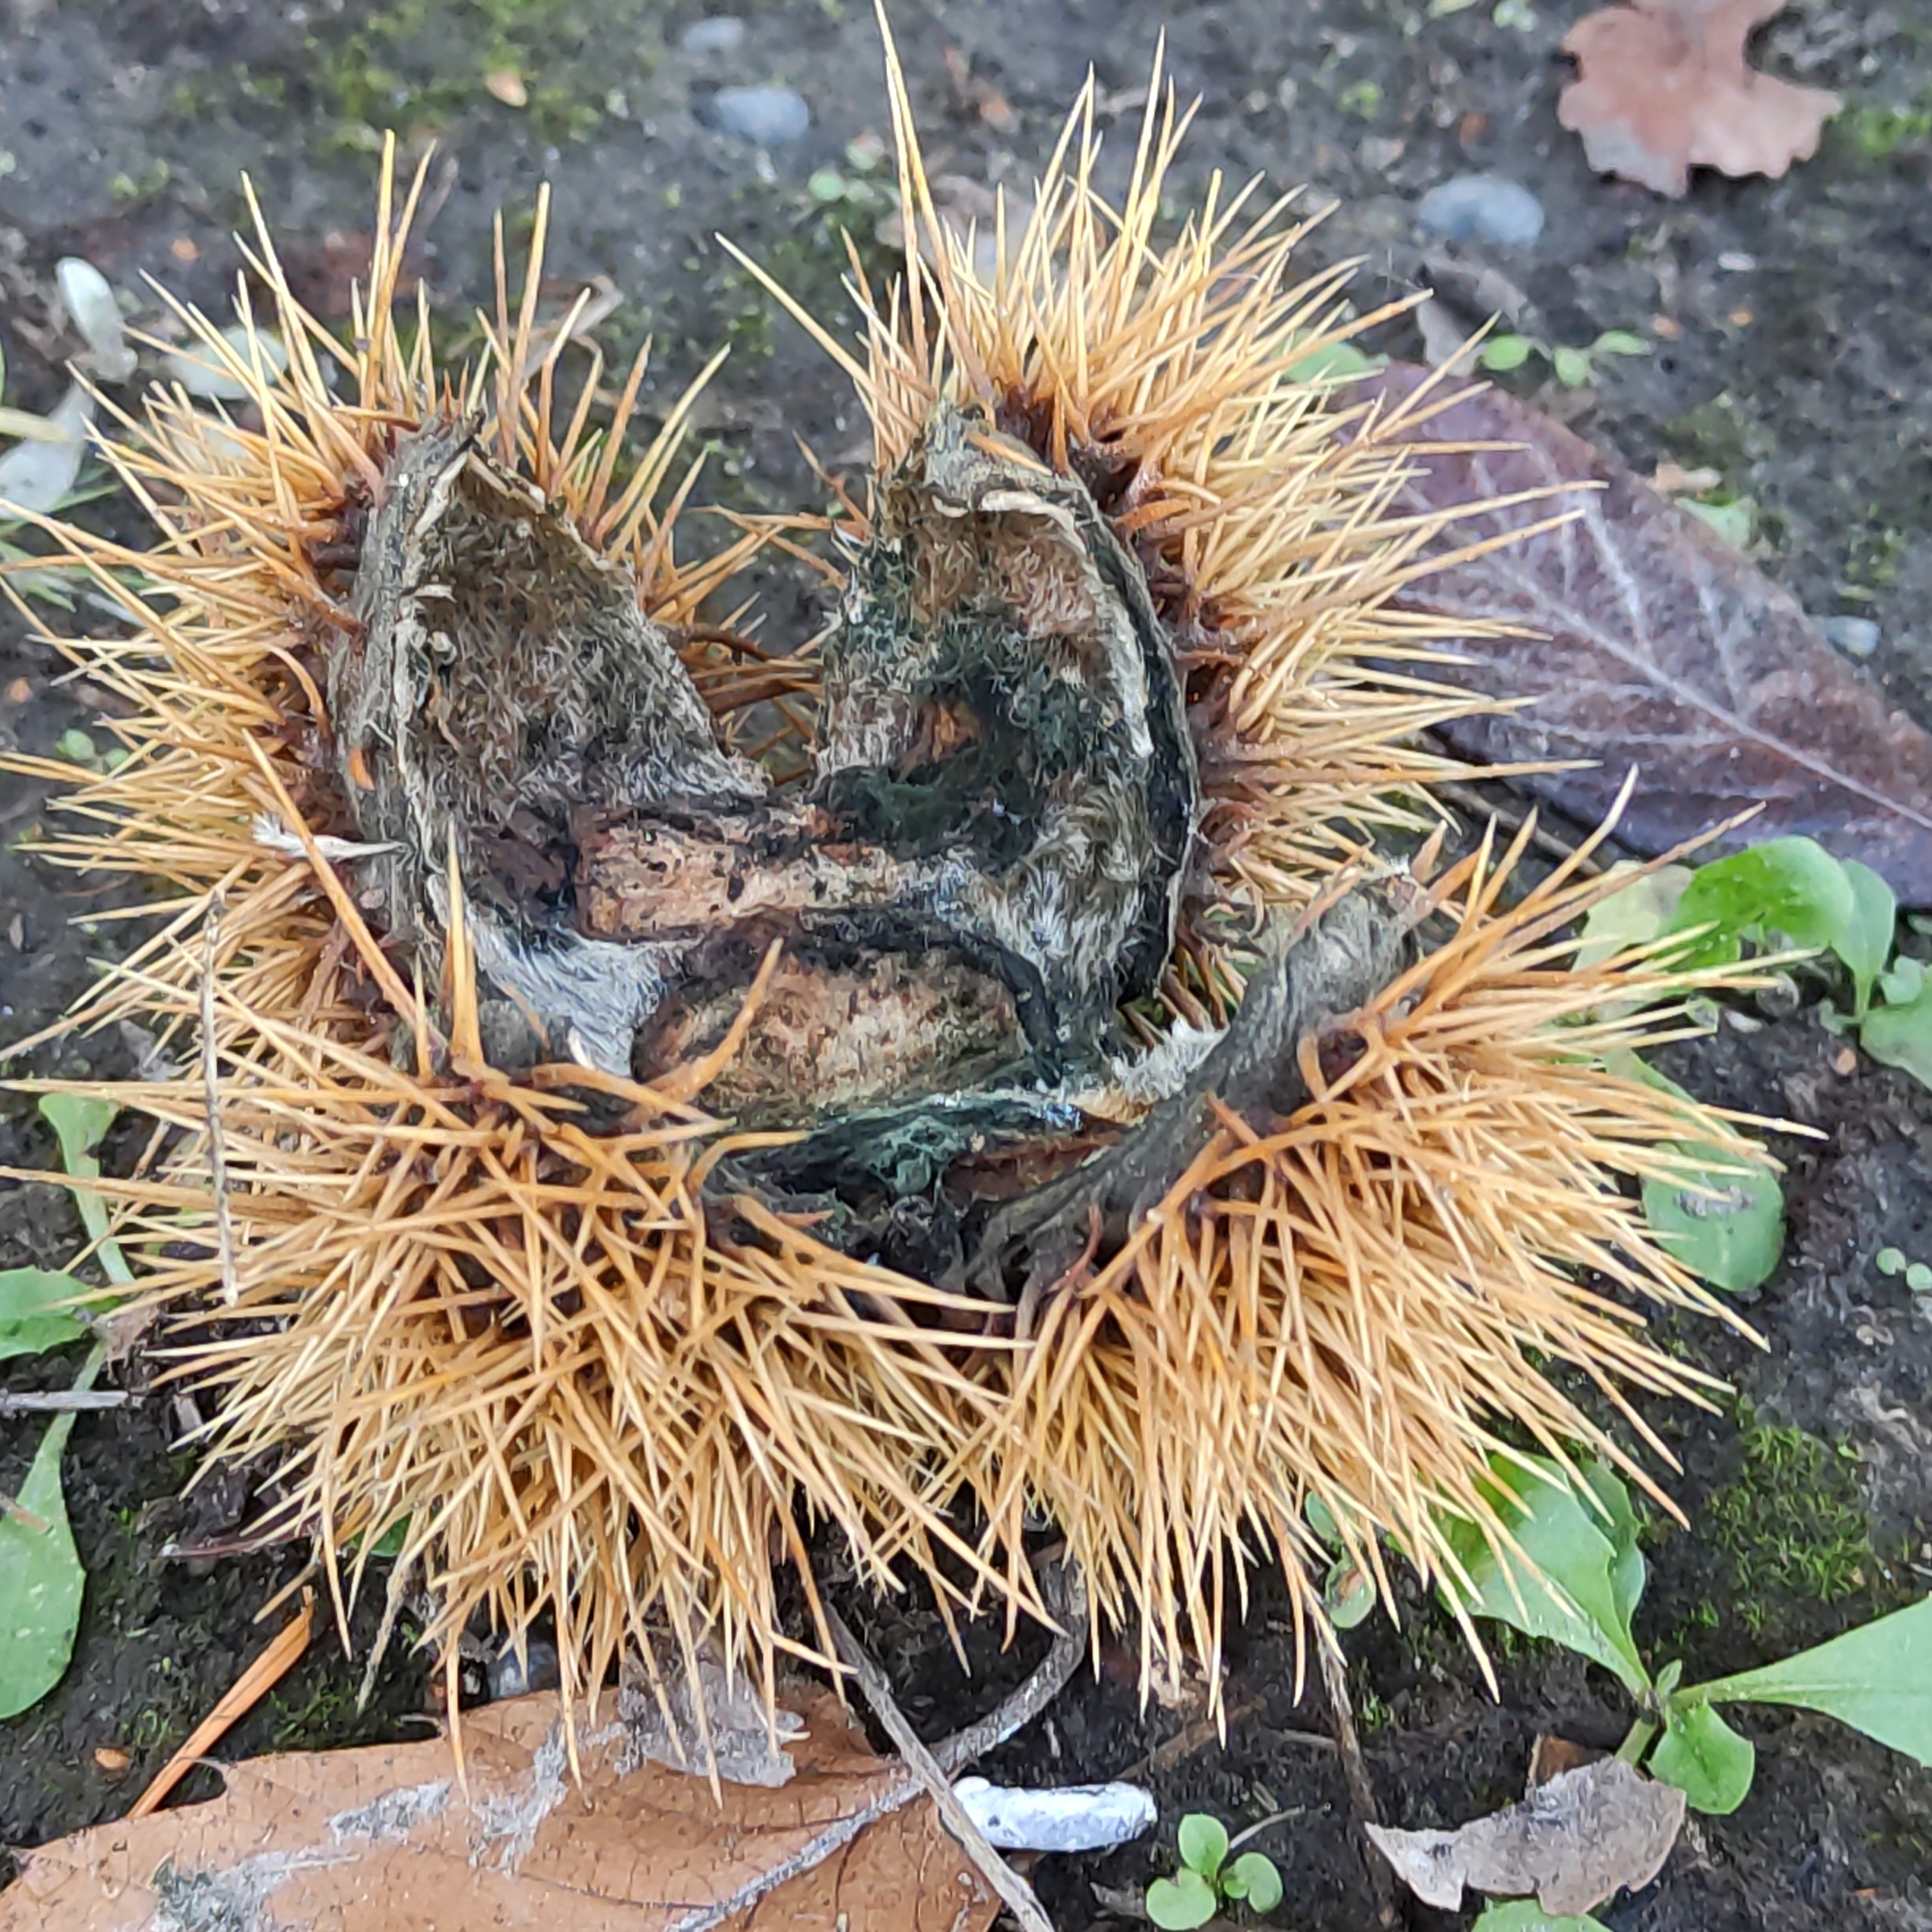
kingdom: Plantae
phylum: Tracheophyta
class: Magnoliopsida
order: Fagales
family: Fagaceae
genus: Castanea
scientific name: Castanea sativa
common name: Sweet chestnut
